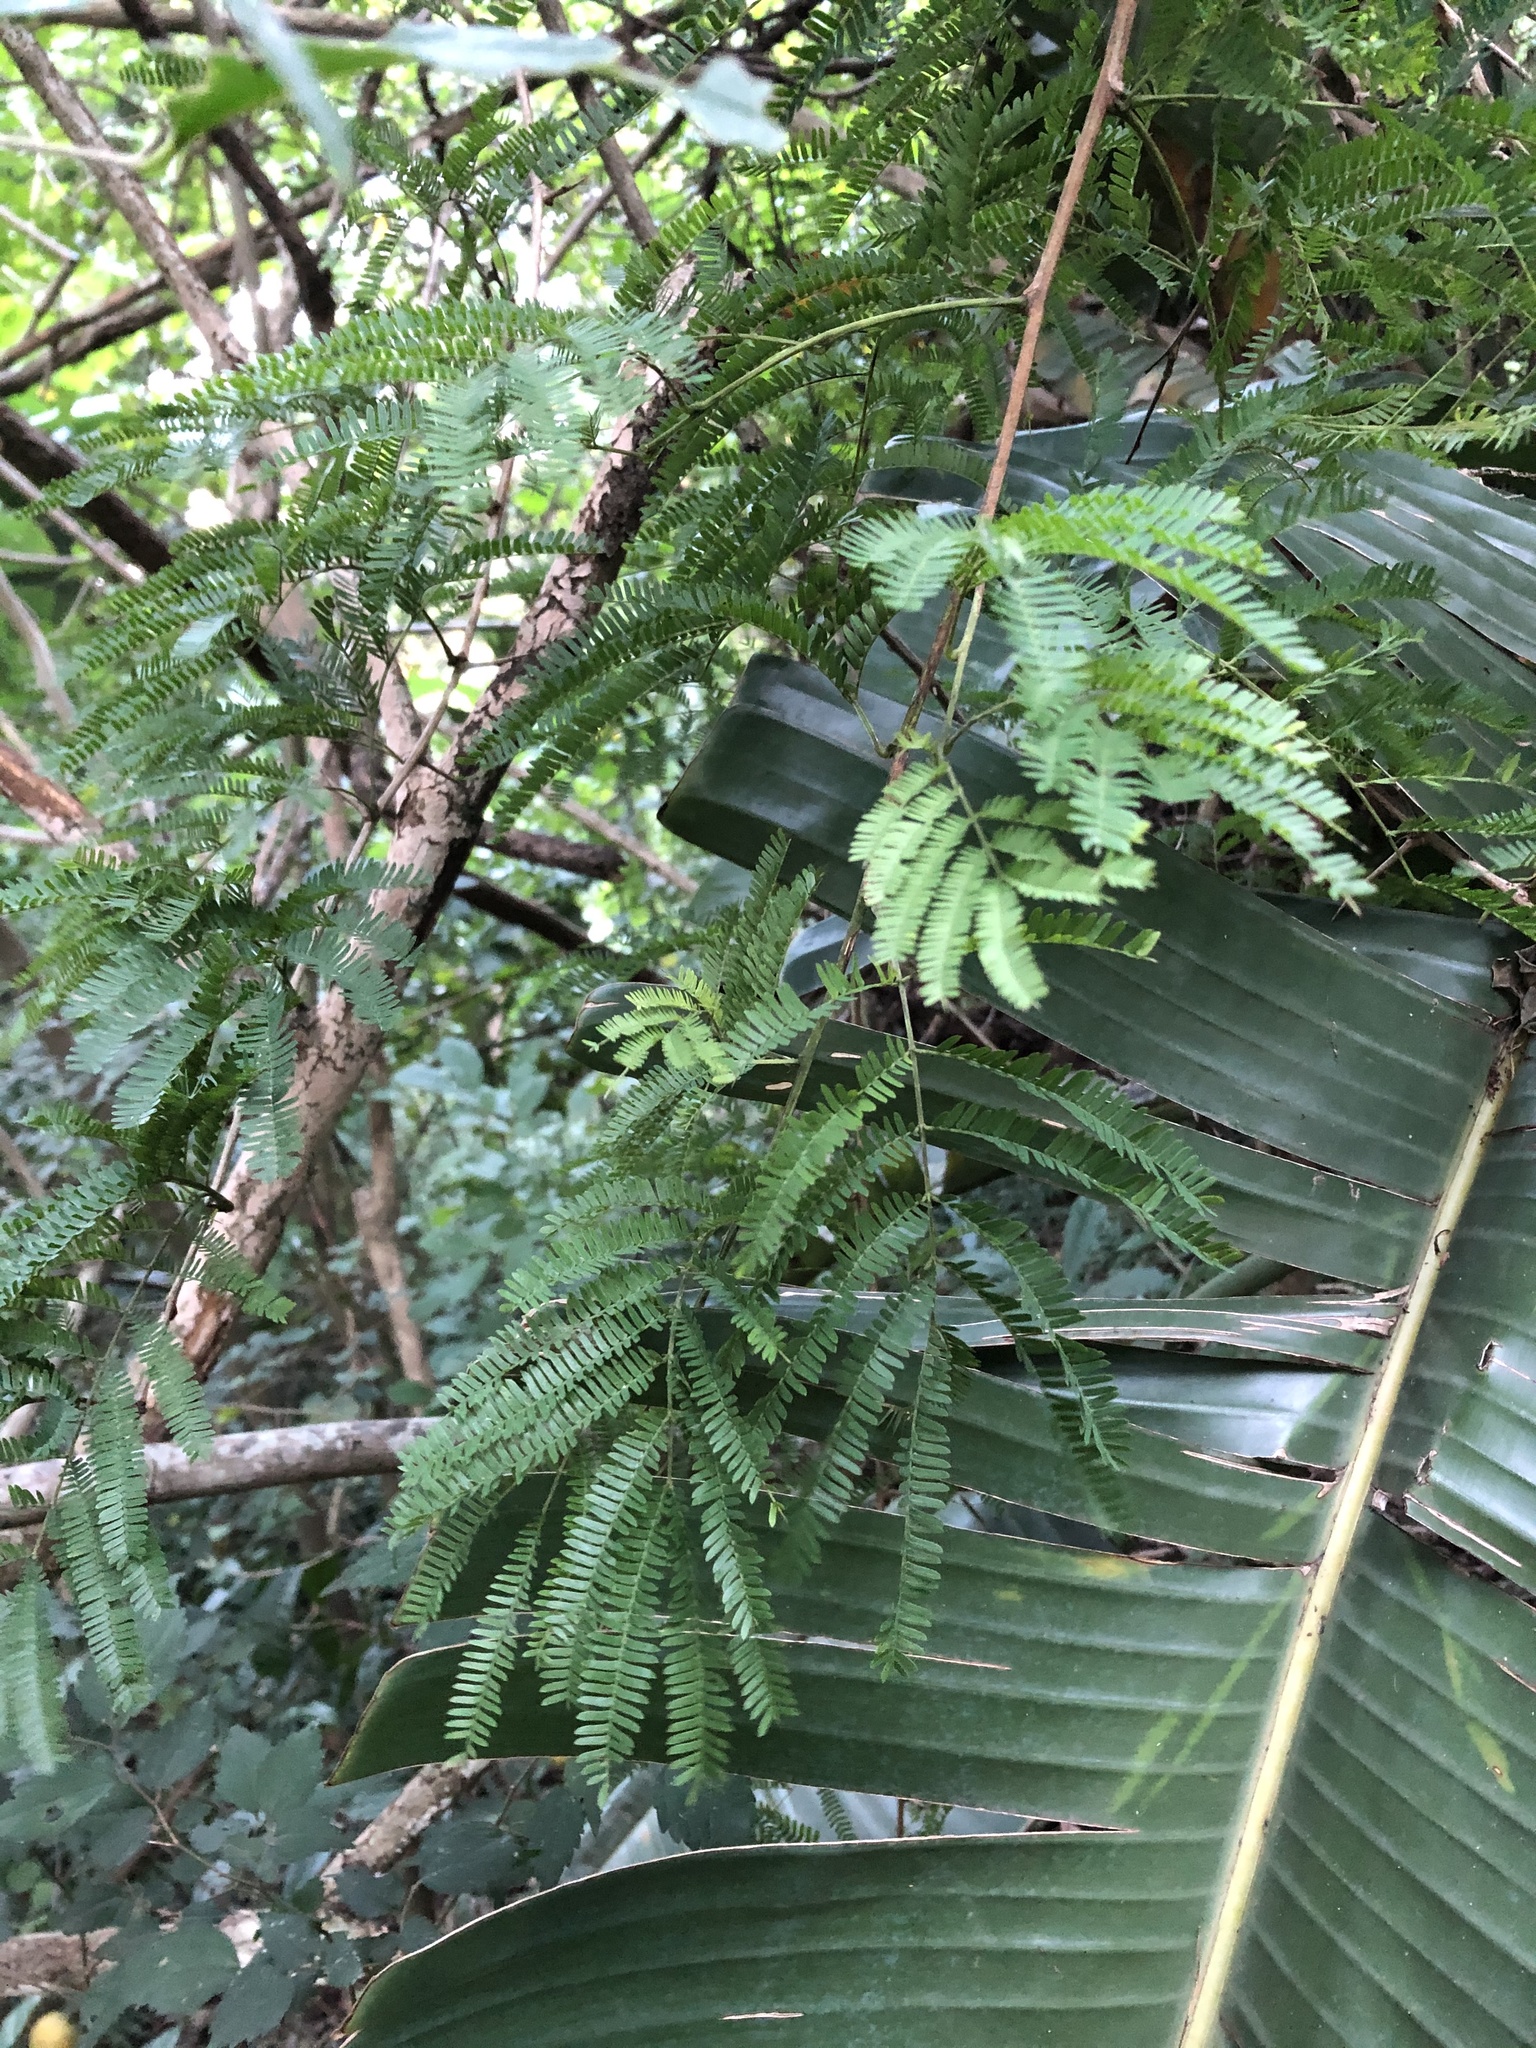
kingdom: Plantae
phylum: Tracheophyta
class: Magnoliopsida
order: Fabales
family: Fabaceae
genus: Dalbergia
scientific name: Dalbergia armata
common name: Hluhluwe climber
